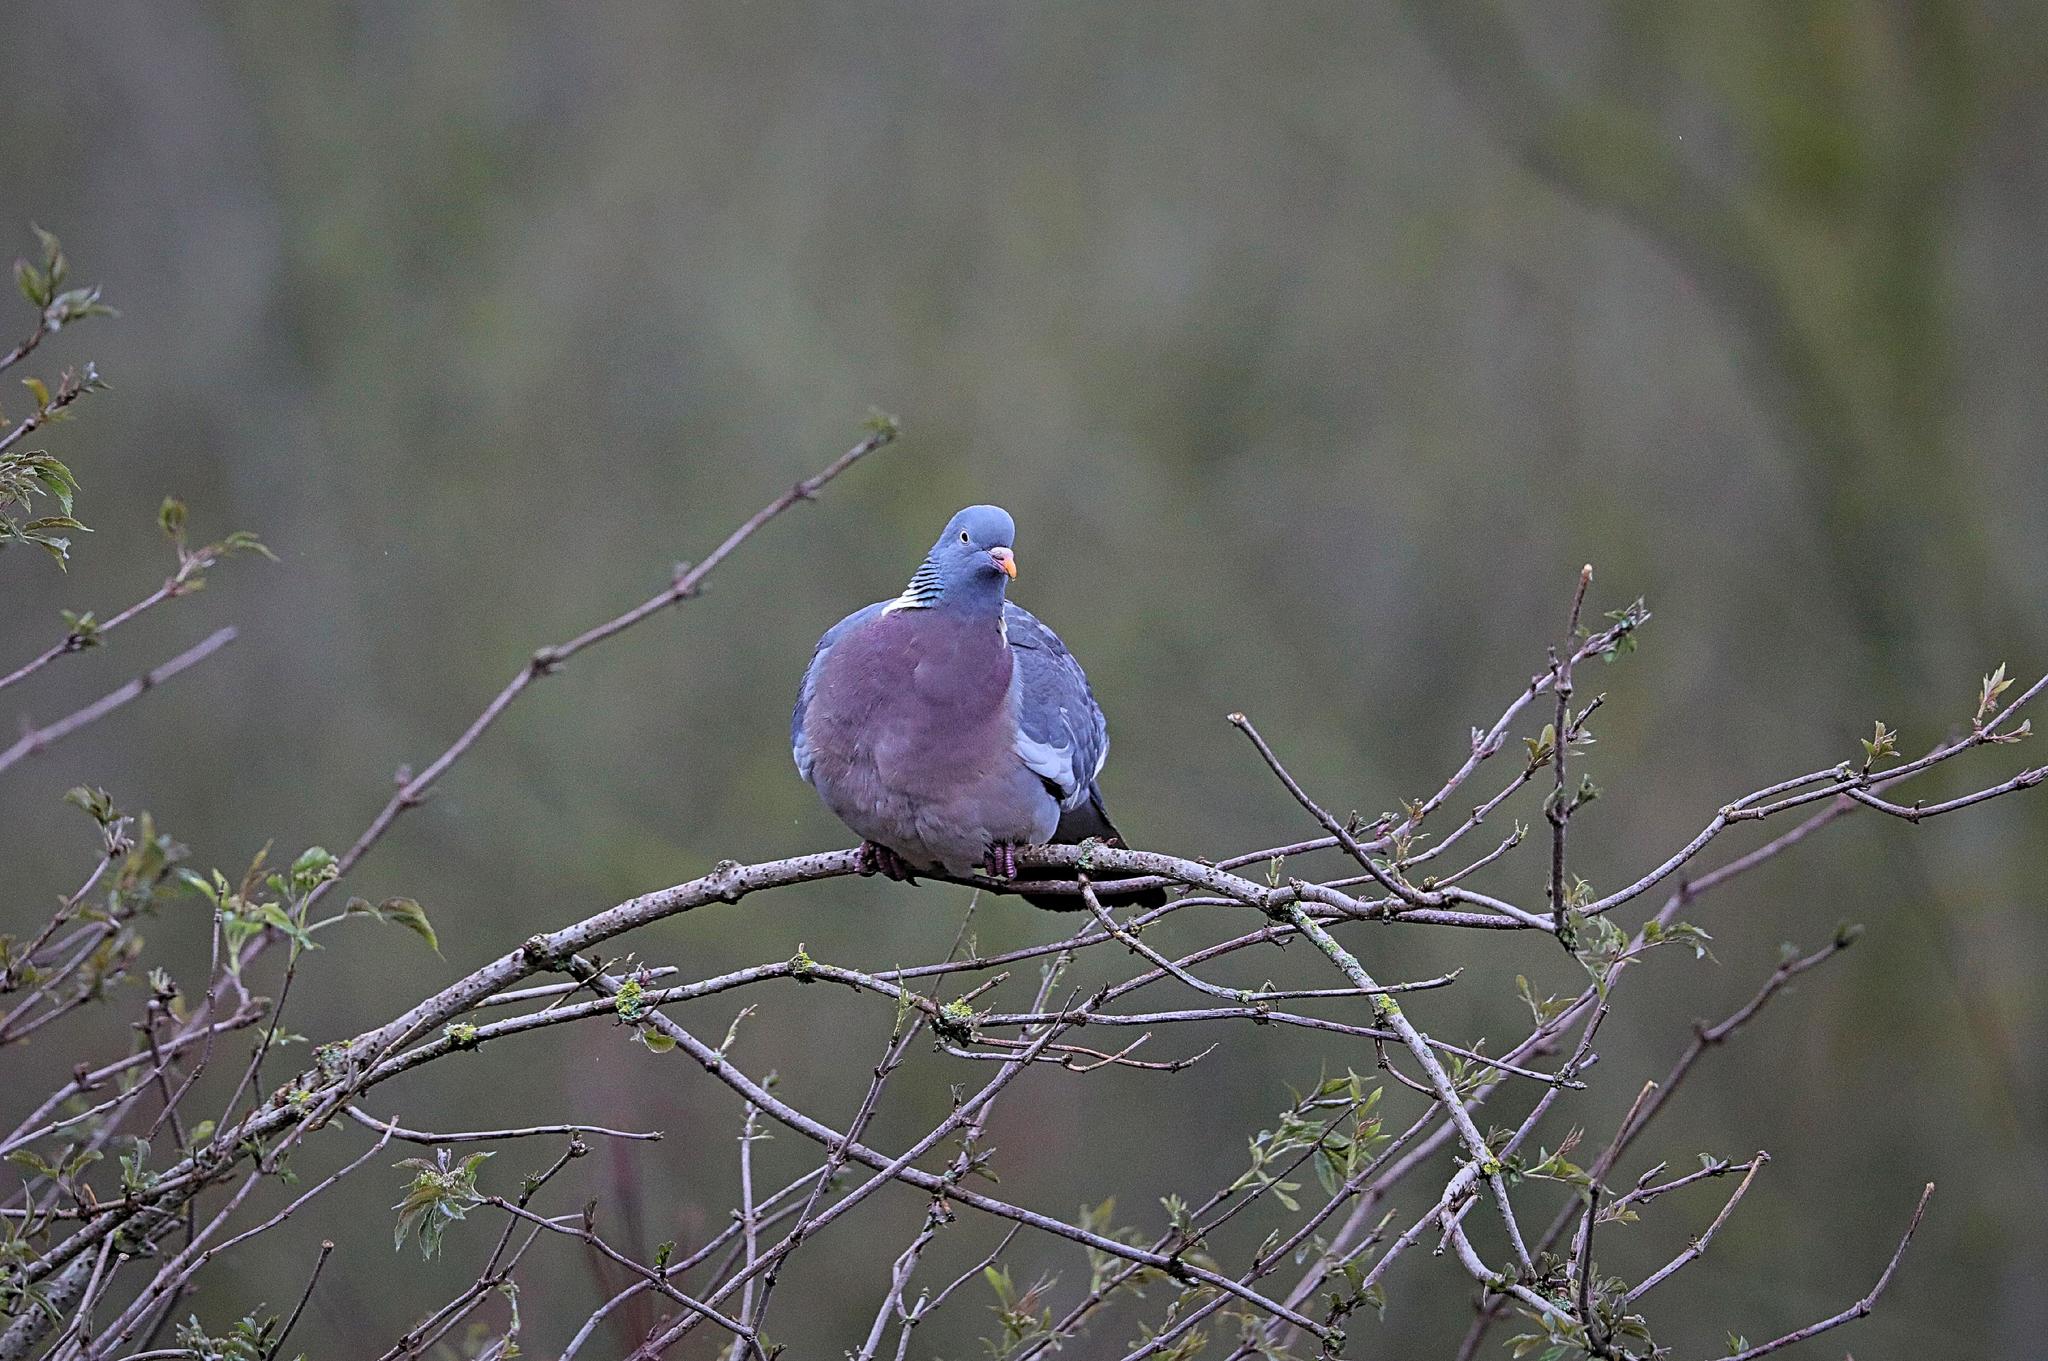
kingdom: Animalia
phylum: Chordata
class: Aves
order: Columbiformes
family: Columbidae
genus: Columba
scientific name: Columba palumbus
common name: Common wood pigeon
